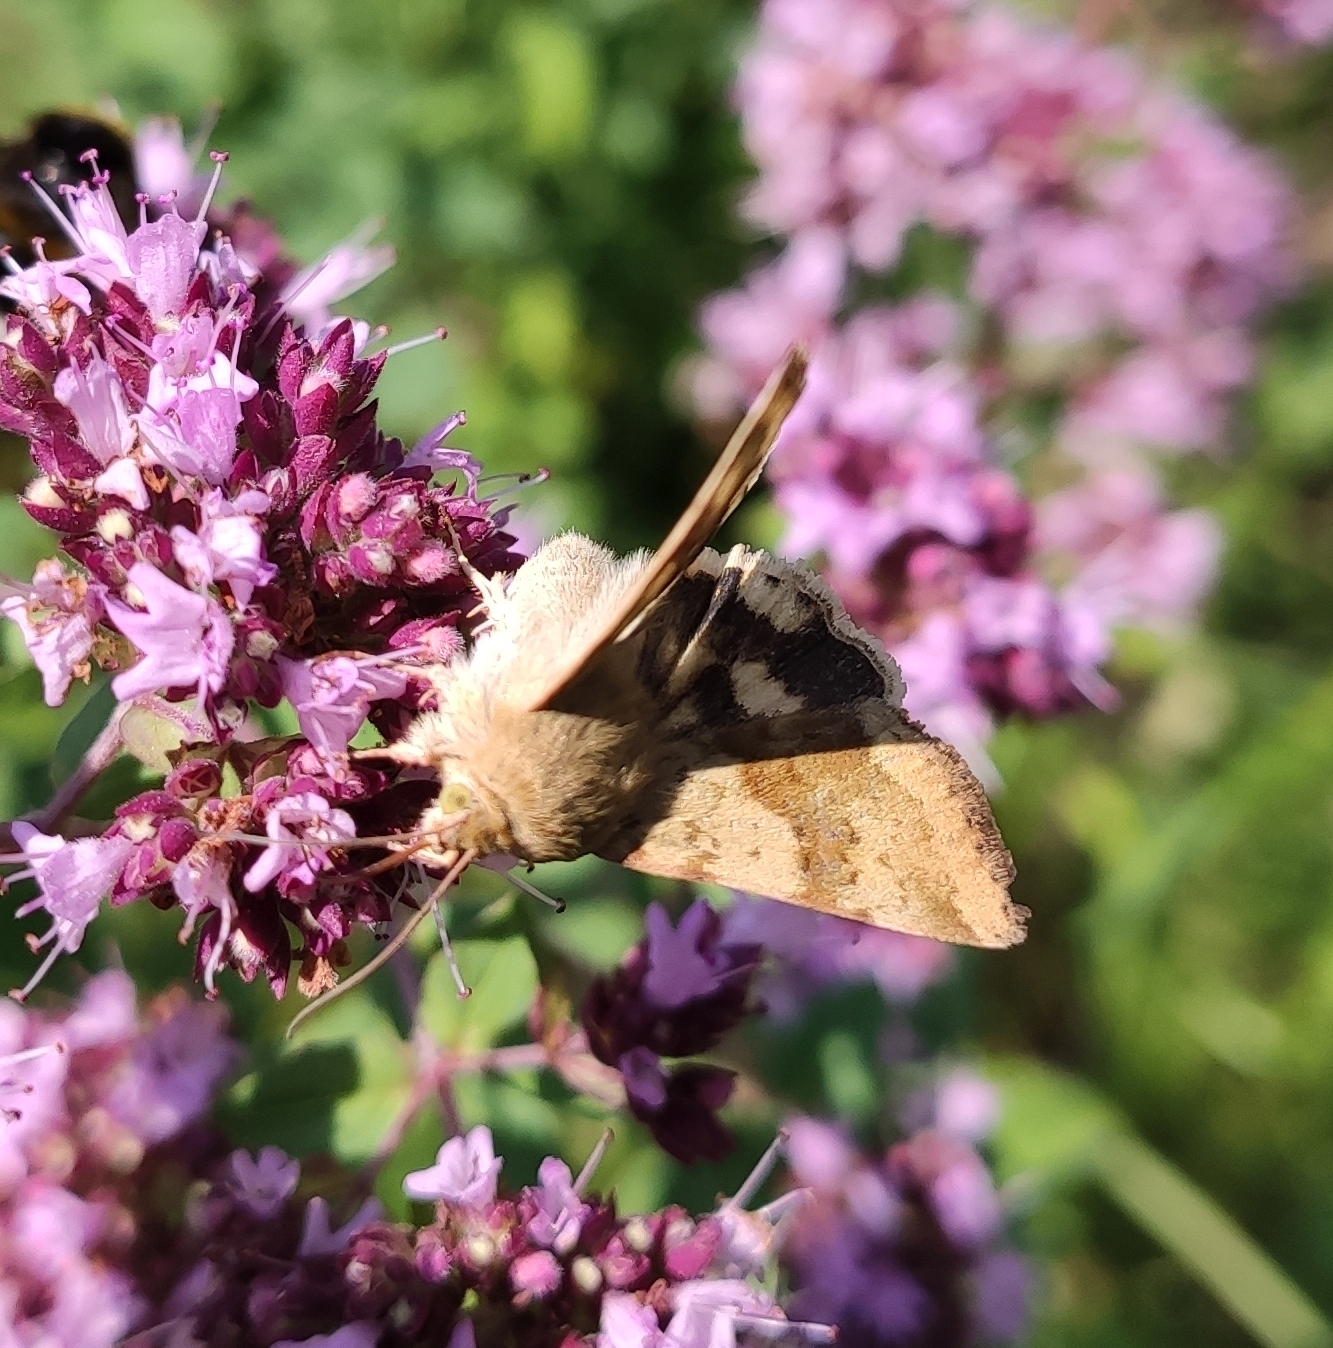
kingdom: Animalia
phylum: Arthropoda
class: Insecta
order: Lepidoptera
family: Noctuidae
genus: Heliothis
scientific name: Heliothis viriplaca
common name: Marbled clover
